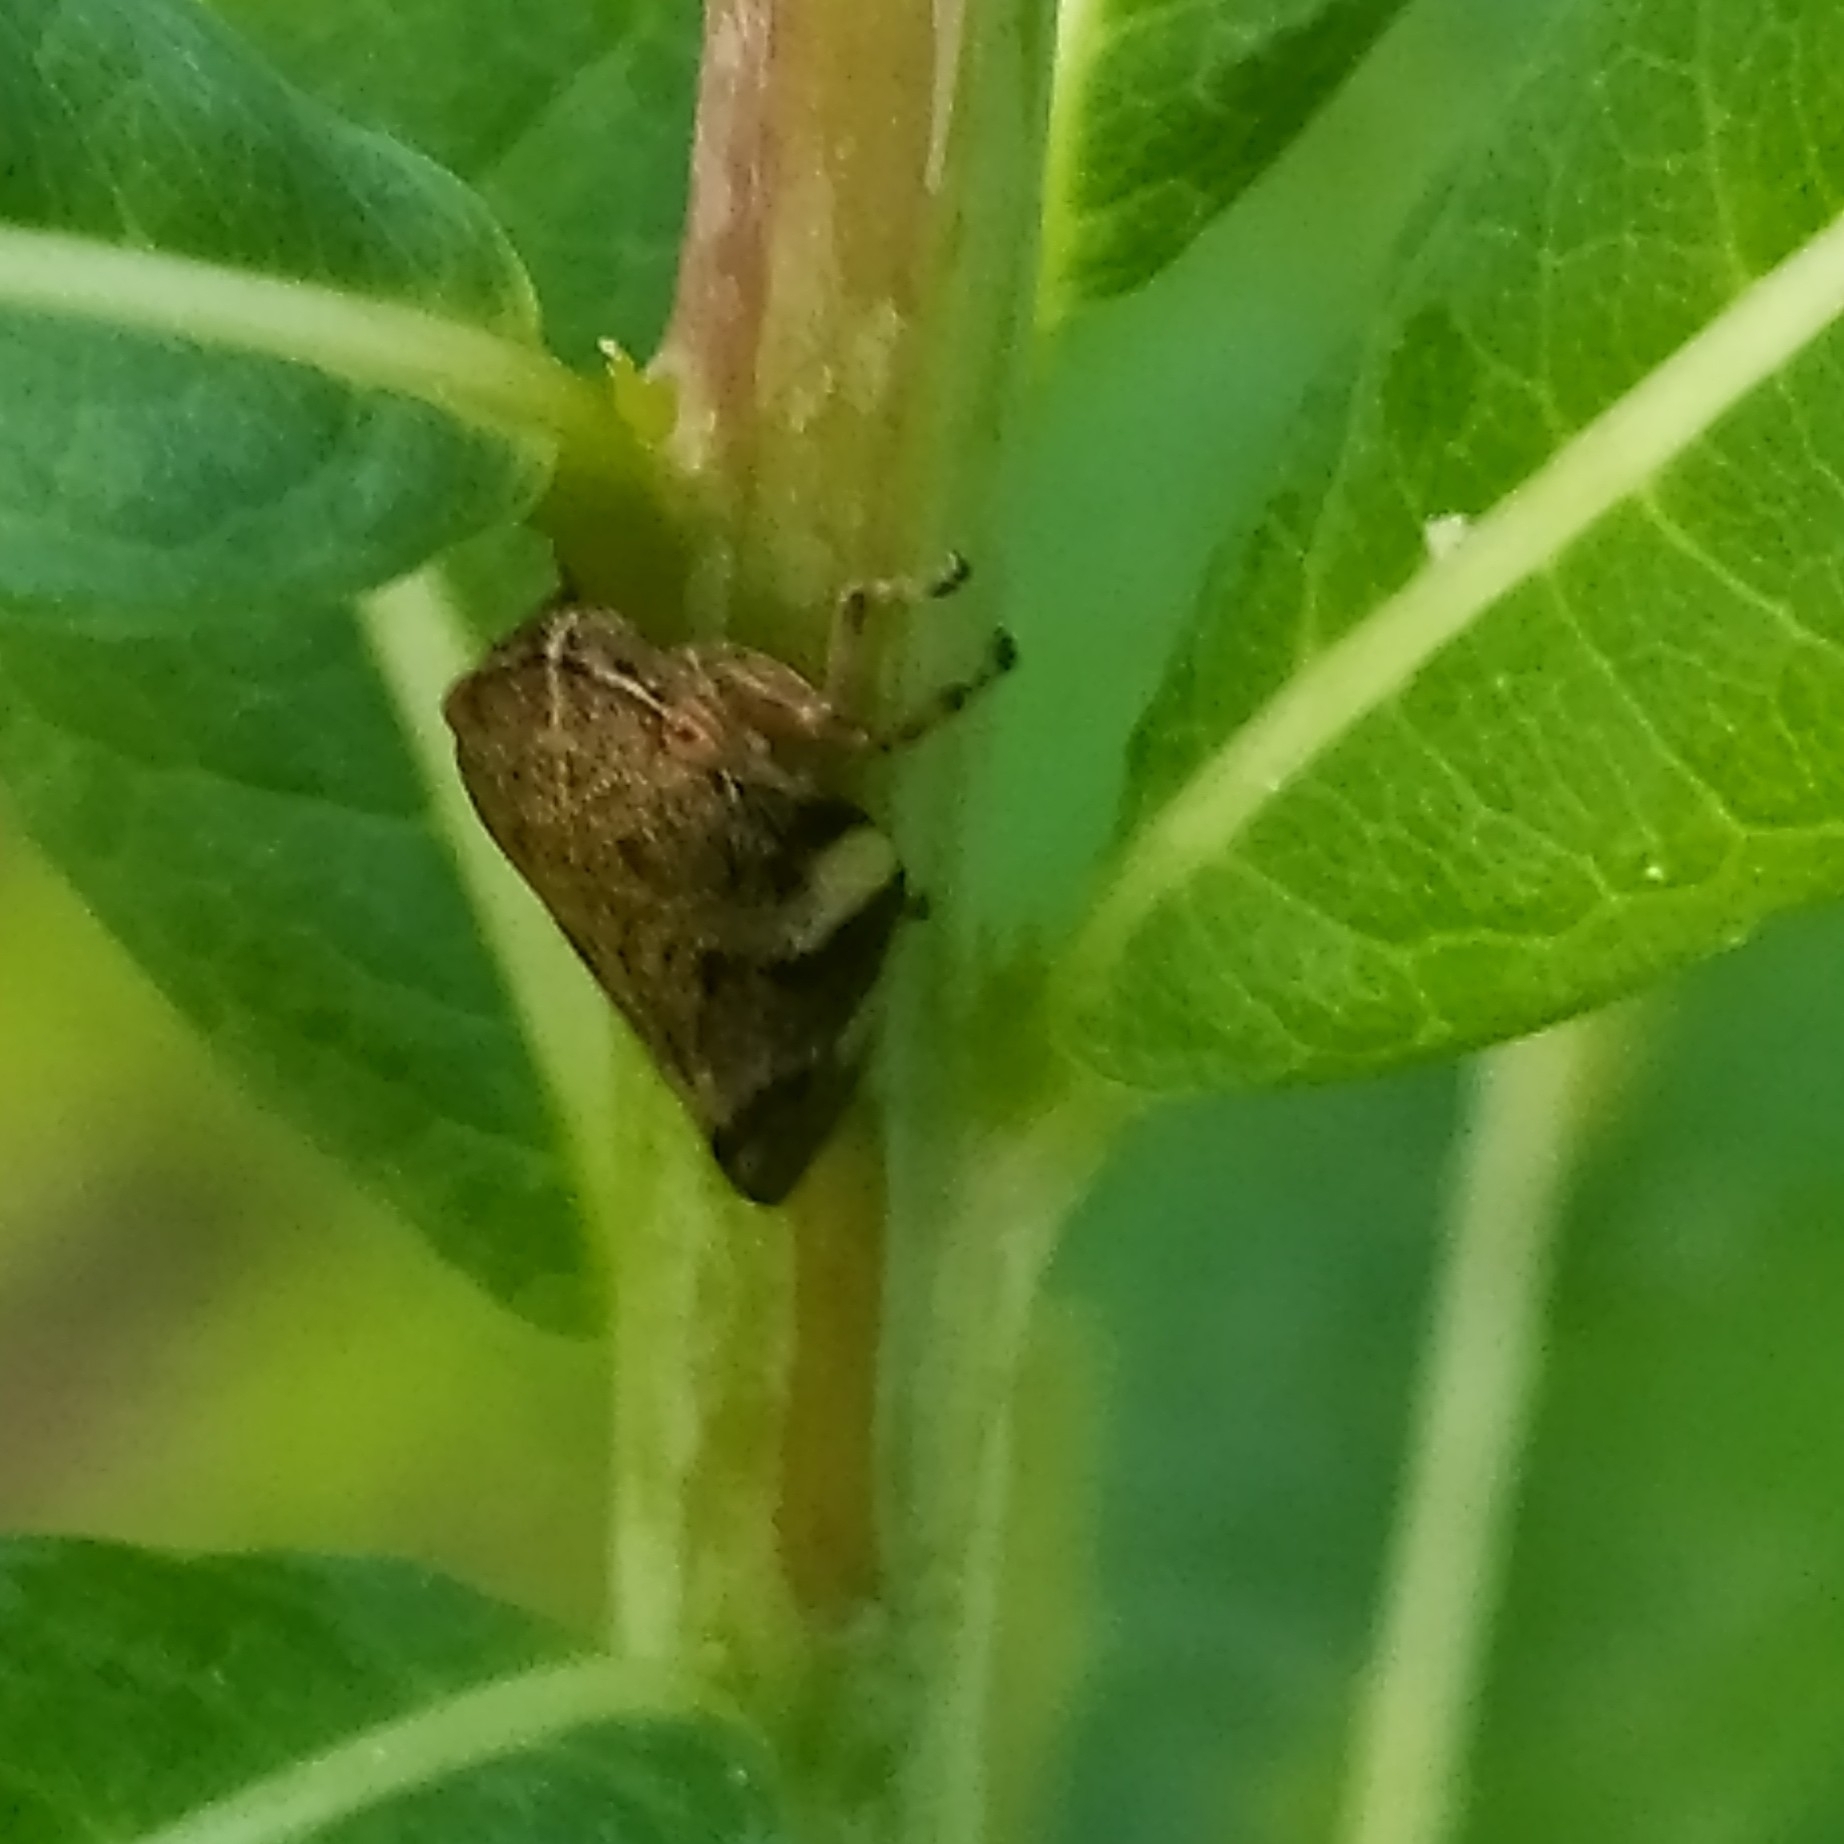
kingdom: Animalia
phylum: Arthropoda
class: Insecta
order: Hemiptera
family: Aphrophoridae
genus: Aphrophora
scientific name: Aphrophora alni
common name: European alder spittlebug
